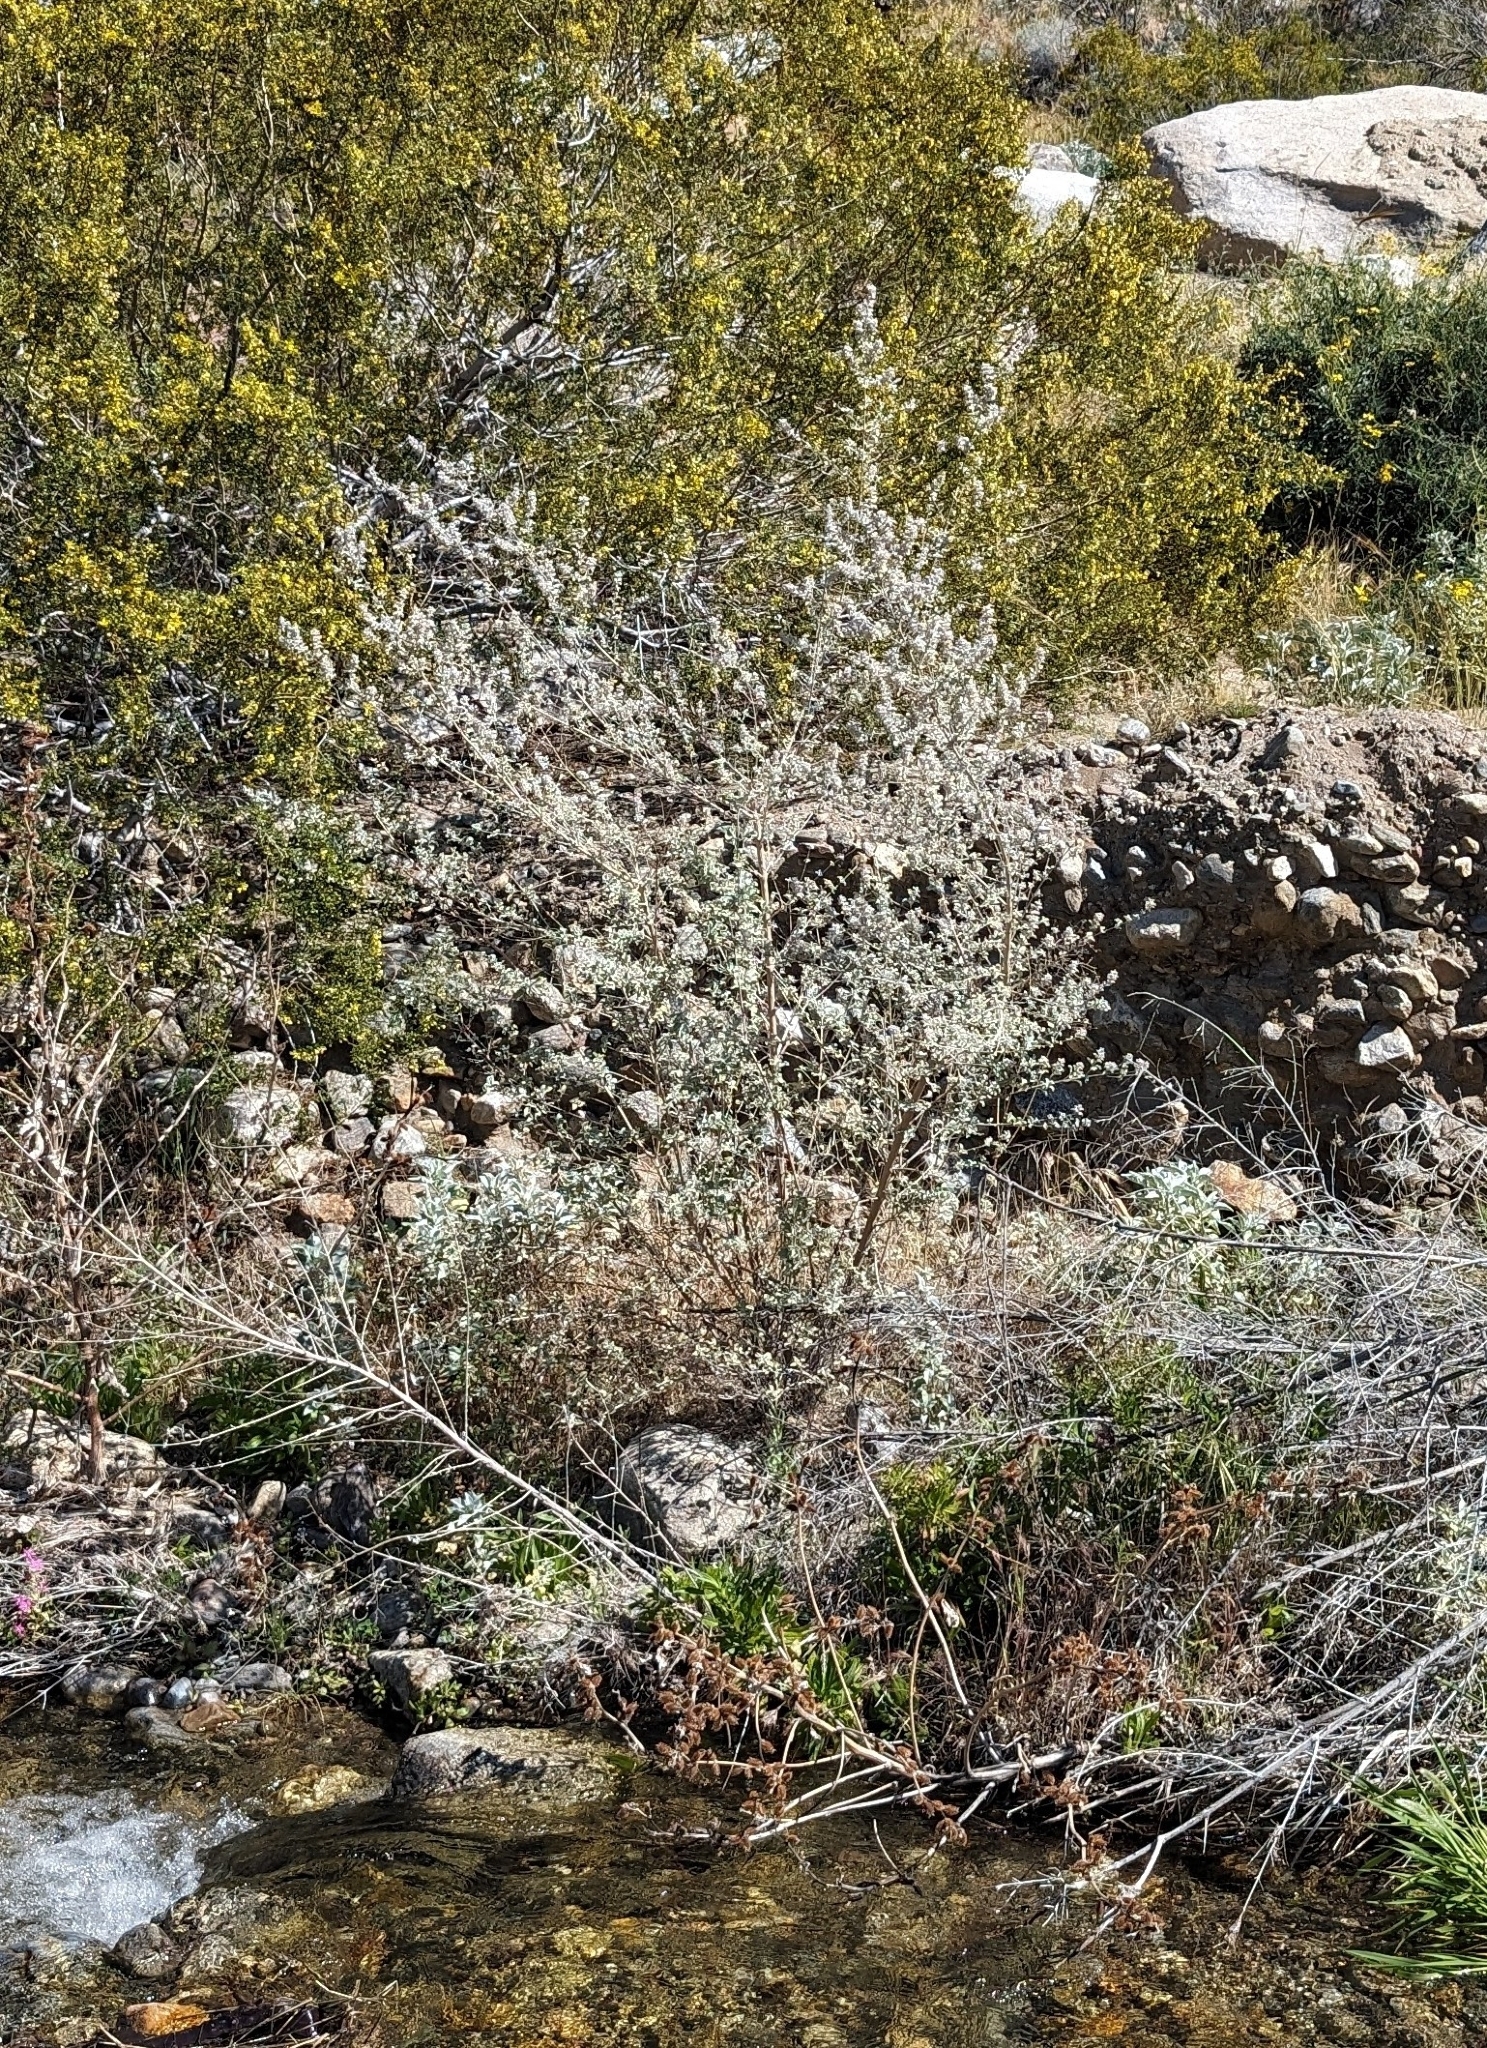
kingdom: Plantae
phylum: Tracheophyta
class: Magnoliopsida
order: Lamiales
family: Lamiaceae
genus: Condea
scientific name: Condea emoryi
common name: Chia
